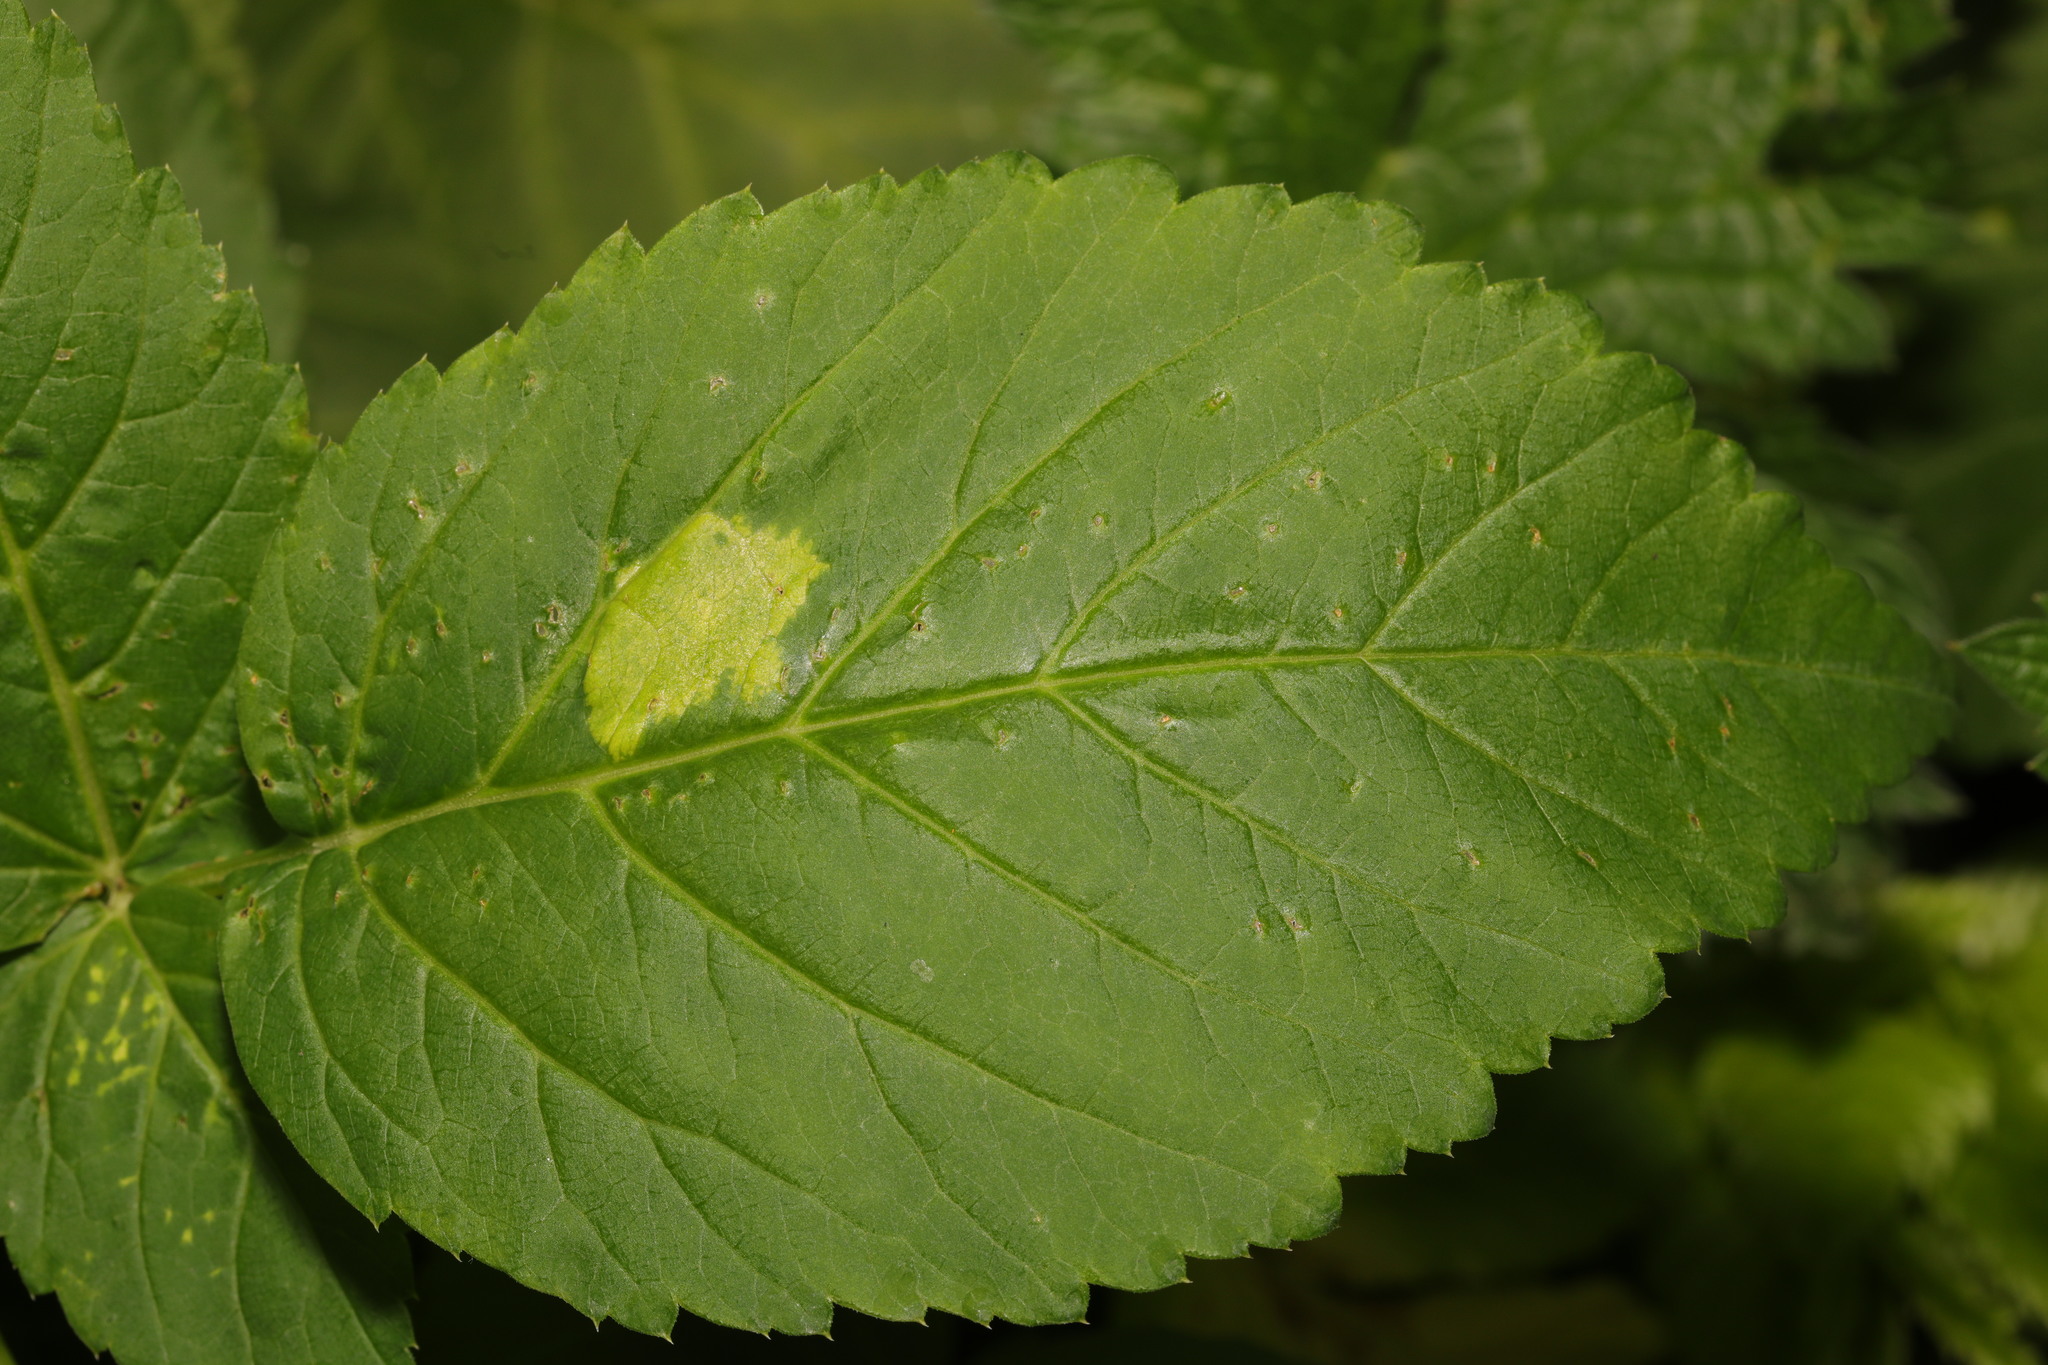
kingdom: Chromista
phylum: Oomycota
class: Peronosporea
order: Peronosporales
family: Peronosporaceae
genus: Peronospora
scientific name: Peronospora crustosa
